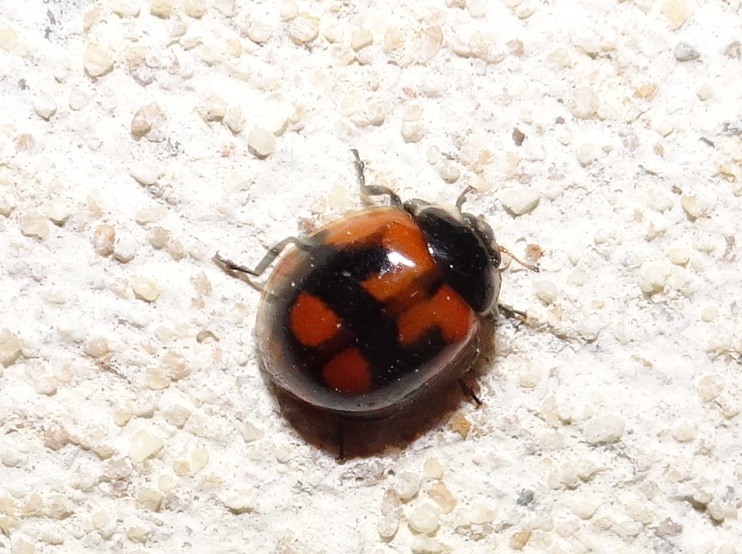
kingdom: Animalia
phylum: Arthropoda
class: Insecta
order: Coleoptera
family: Coccinellidae
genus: Adalia
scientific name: Adalia bipunctata
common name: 2-spot ladybird
